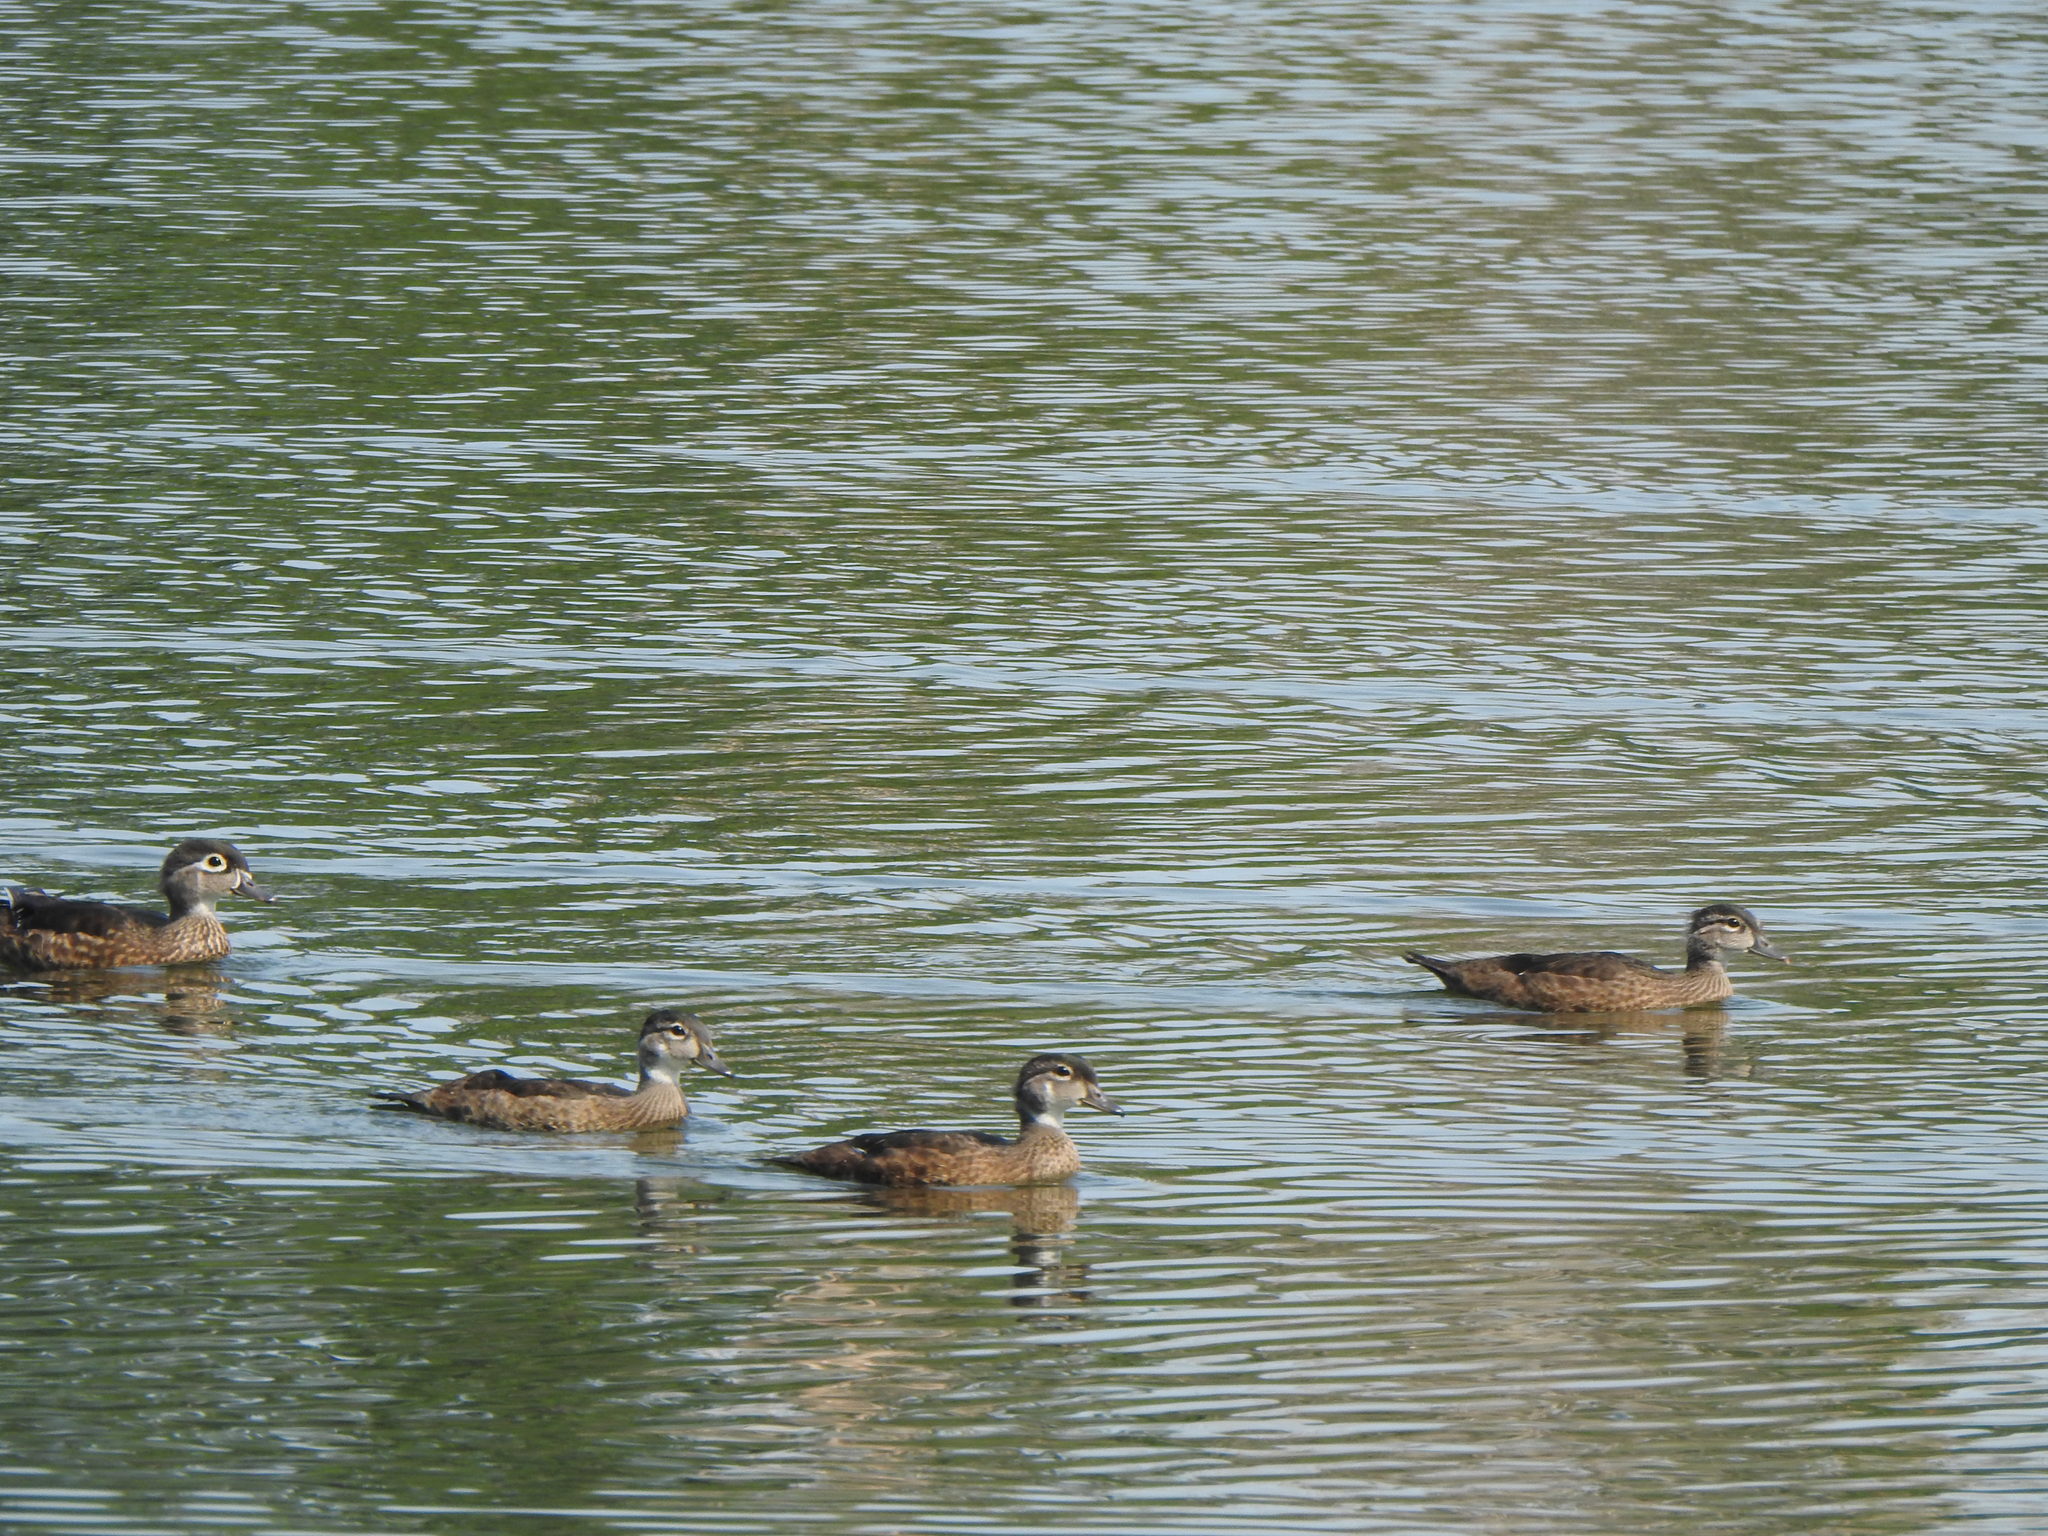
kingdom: Animalia
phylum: Chordata
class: Aves
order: Anseriformes
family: Anatidae
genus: Aix
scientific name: Aix sponsa
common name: Wood duck
